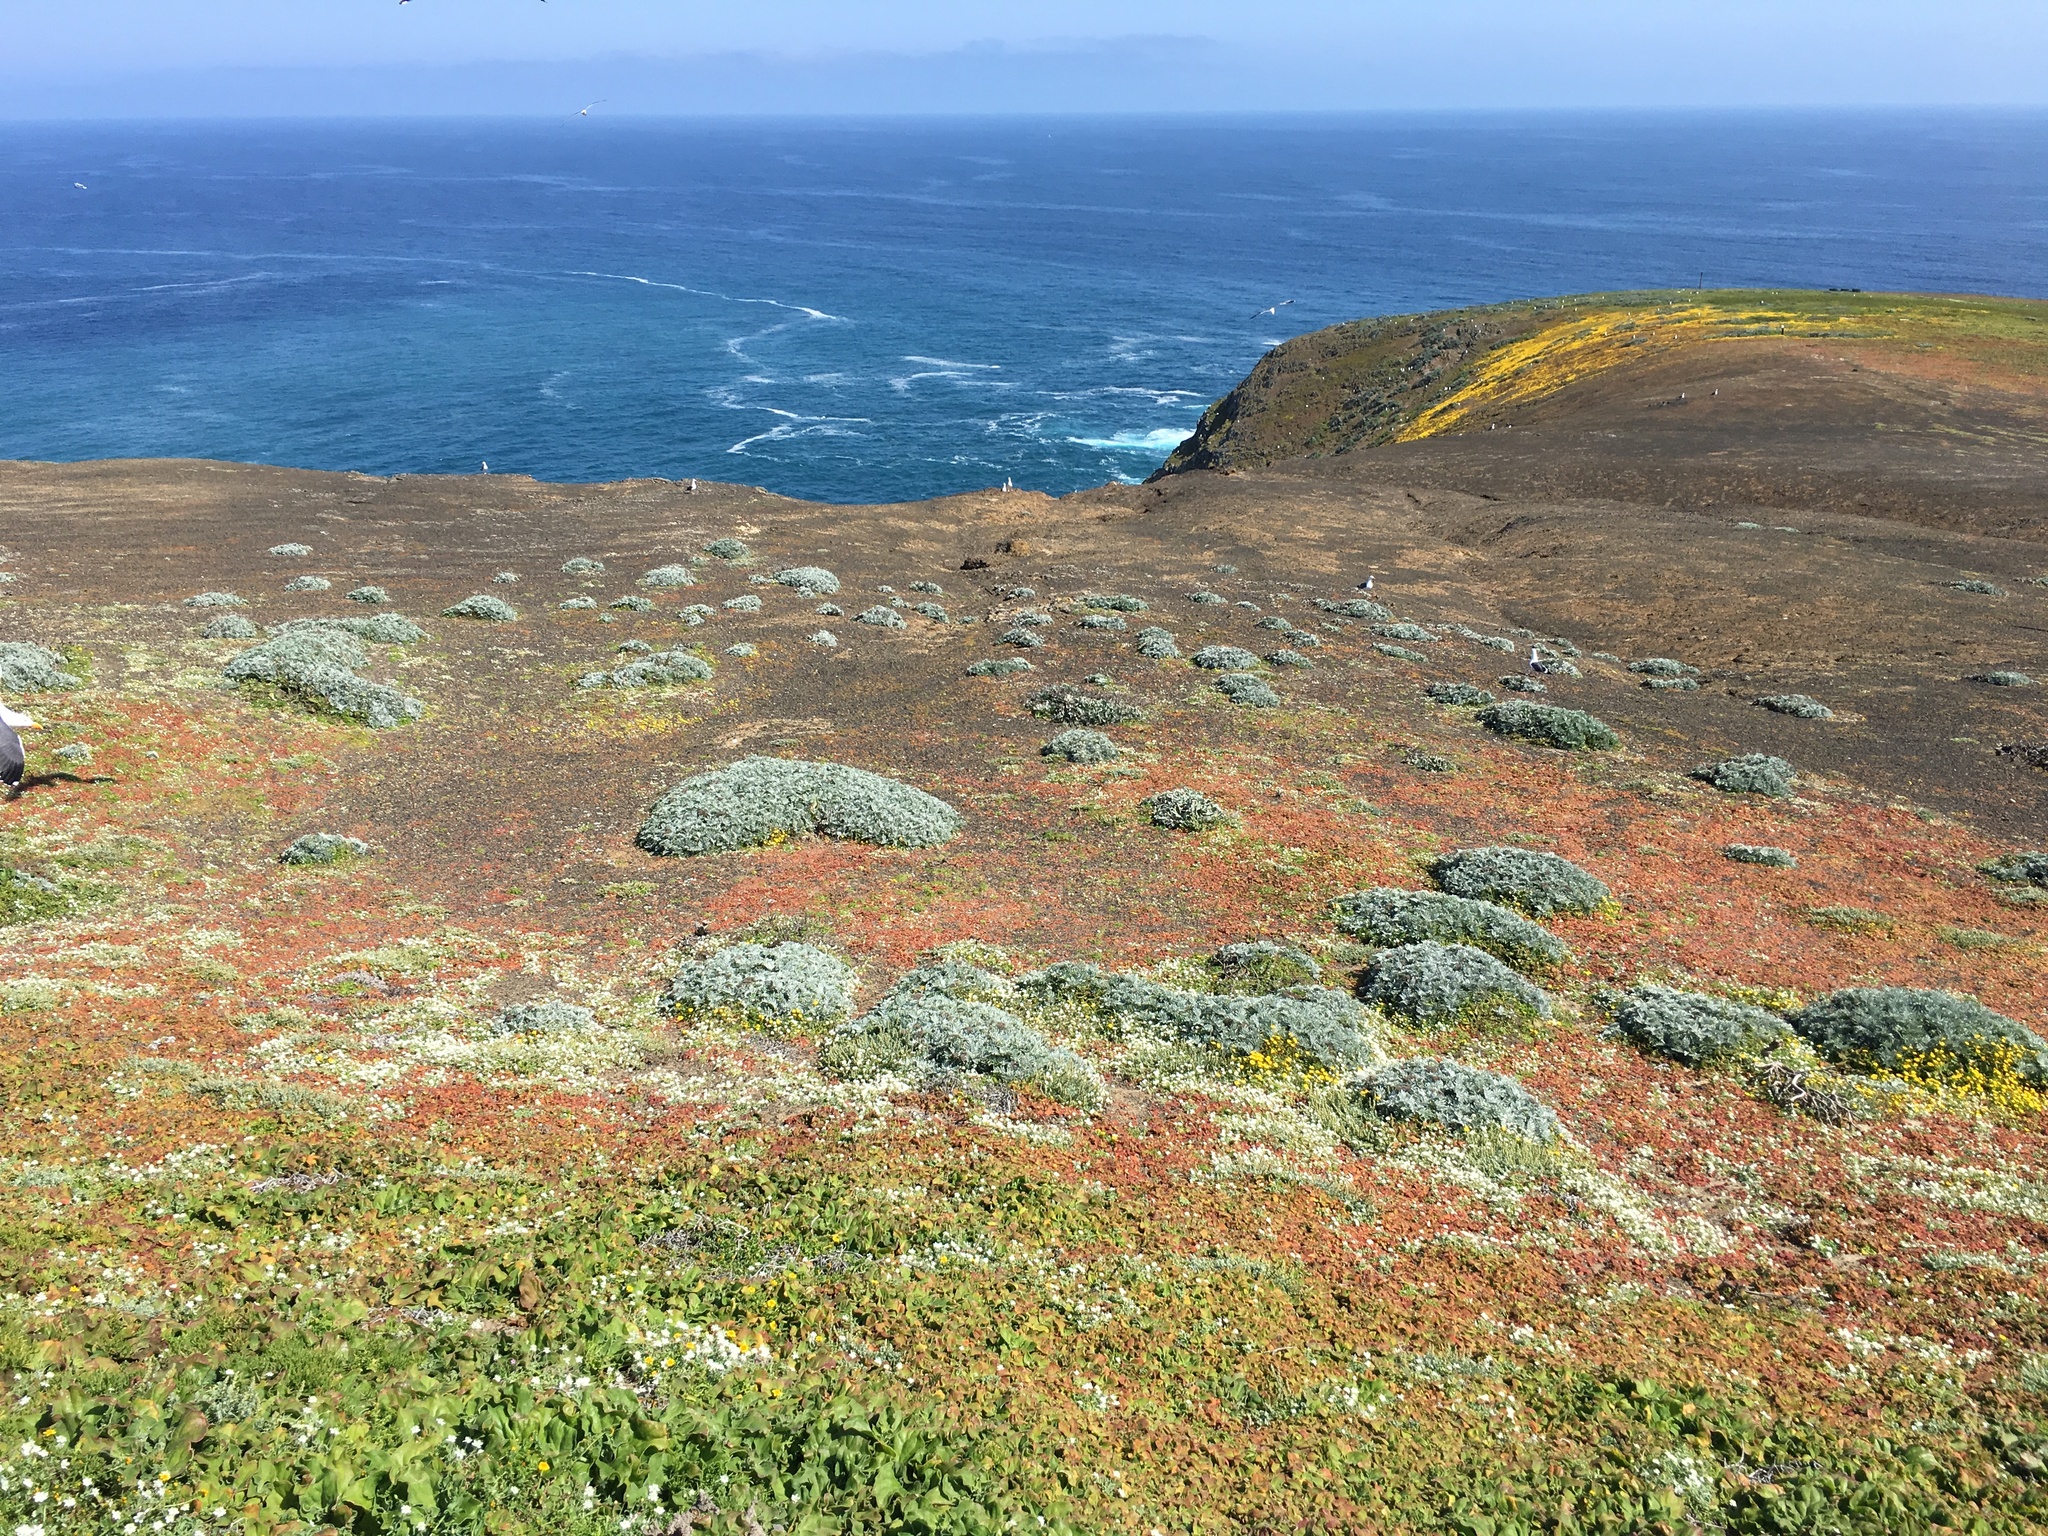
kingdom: Plantae
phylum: Tracheophyta
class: Magnoliopsida
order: Asterales
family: Asteraceae
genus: Constancea
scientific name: Constancea nevinii
